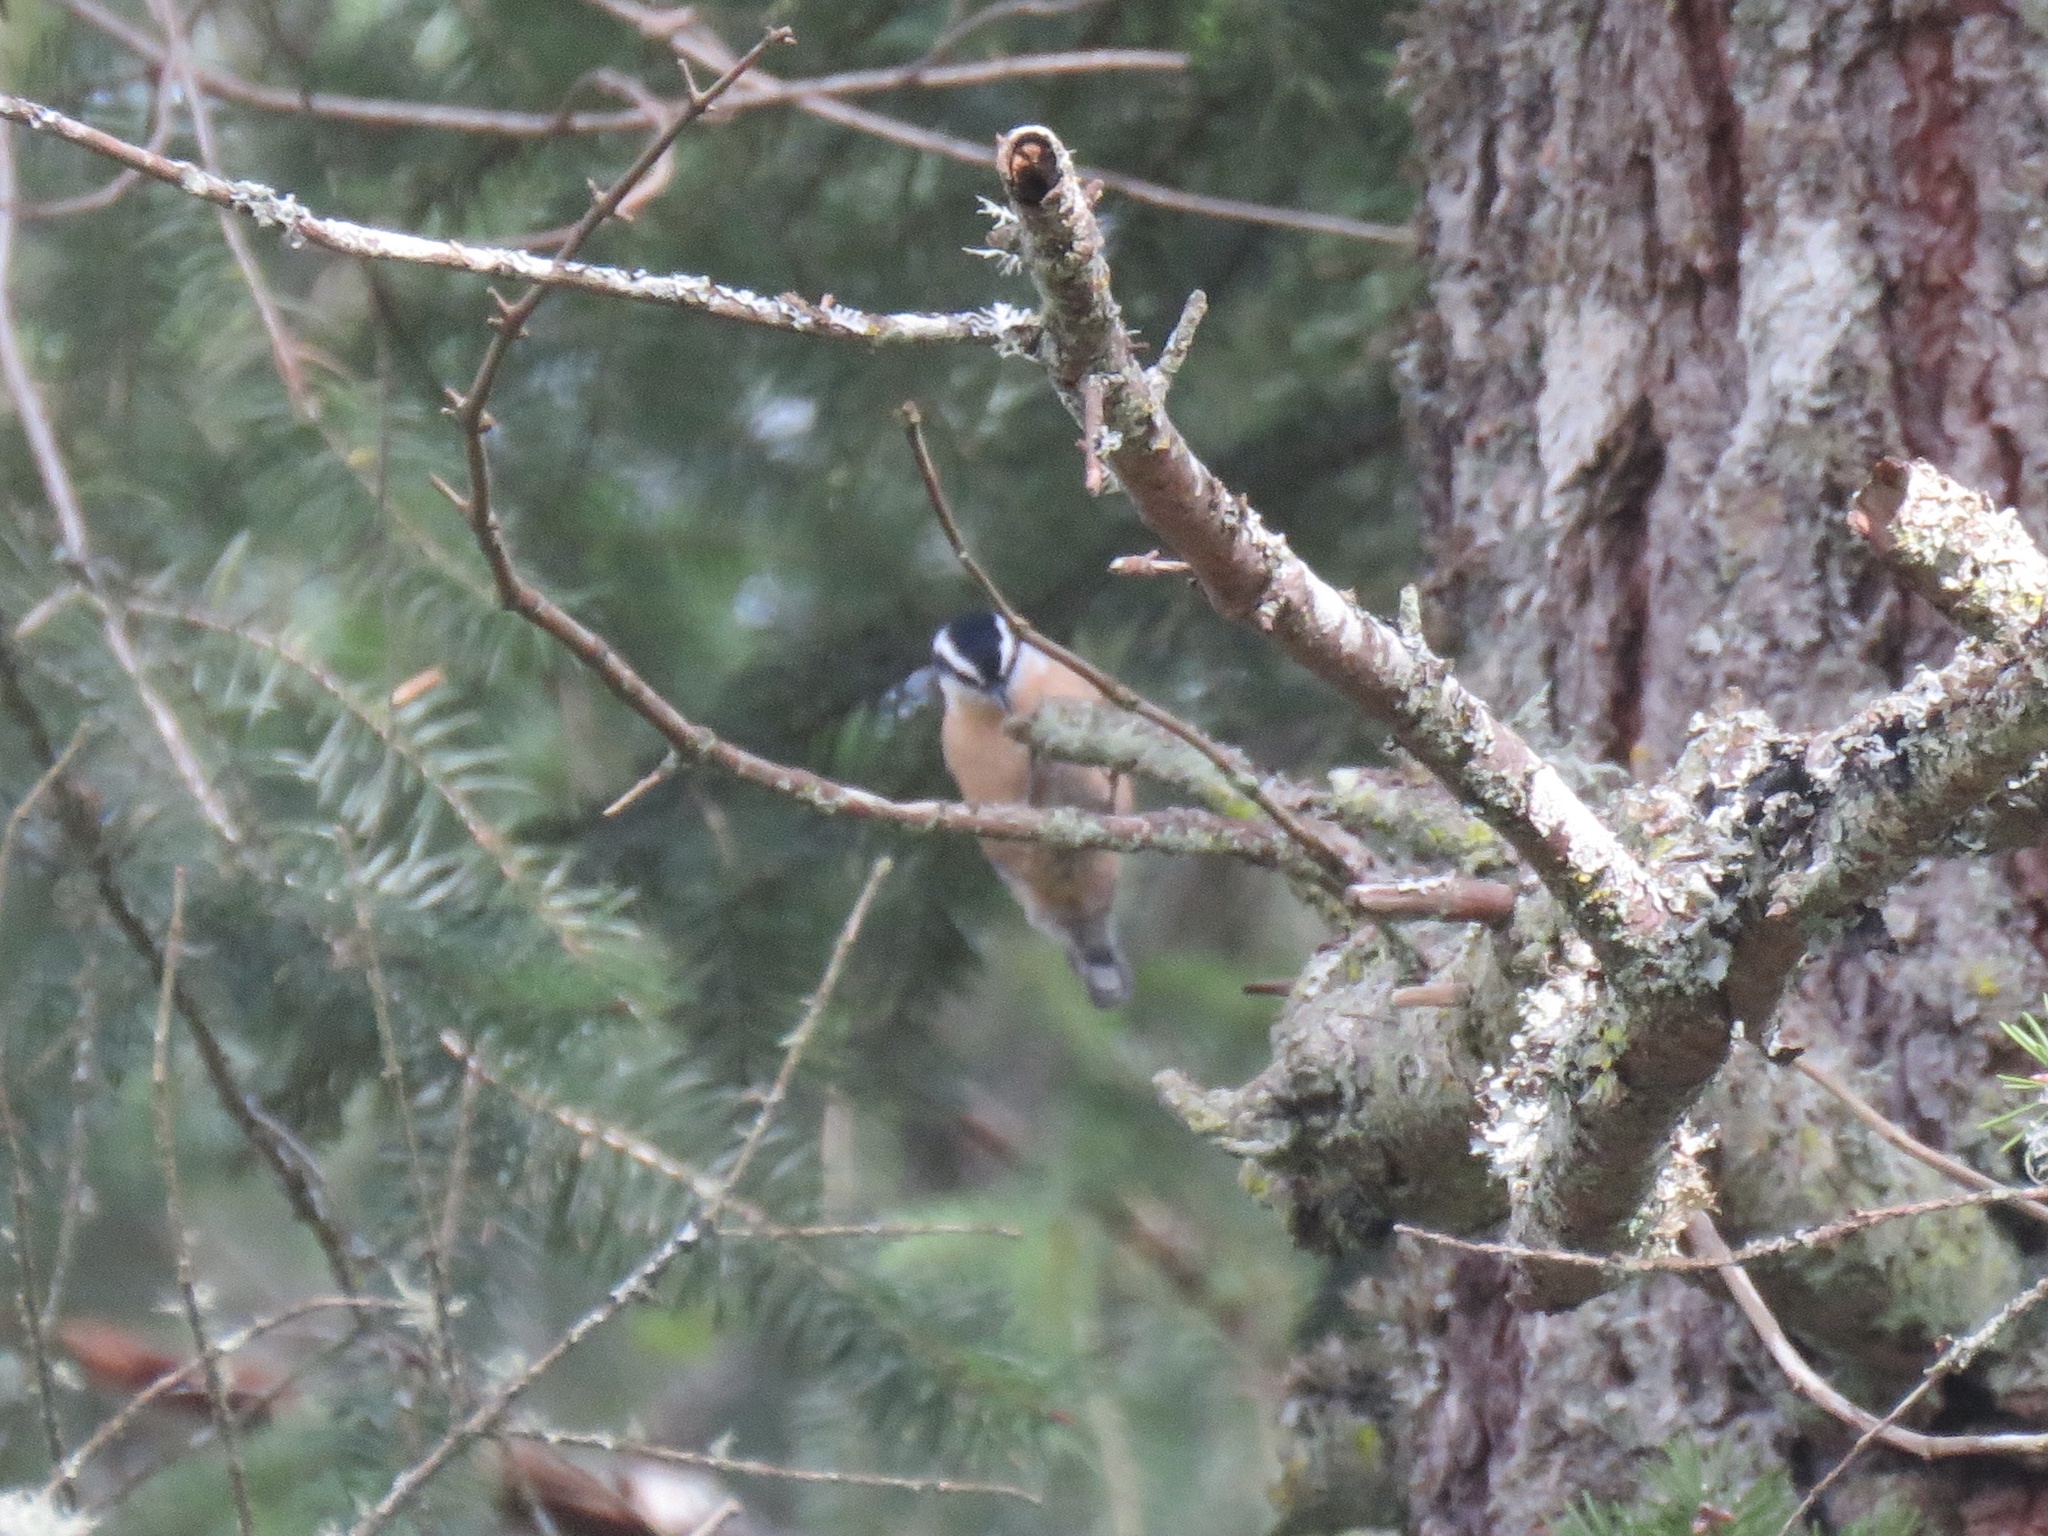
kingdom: Animalia
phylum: Chordata
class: Aves
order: Passeriformes
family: Sittidae
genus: Sitta
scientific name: Sitta canadensis
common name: Red-breasted nuthatch
